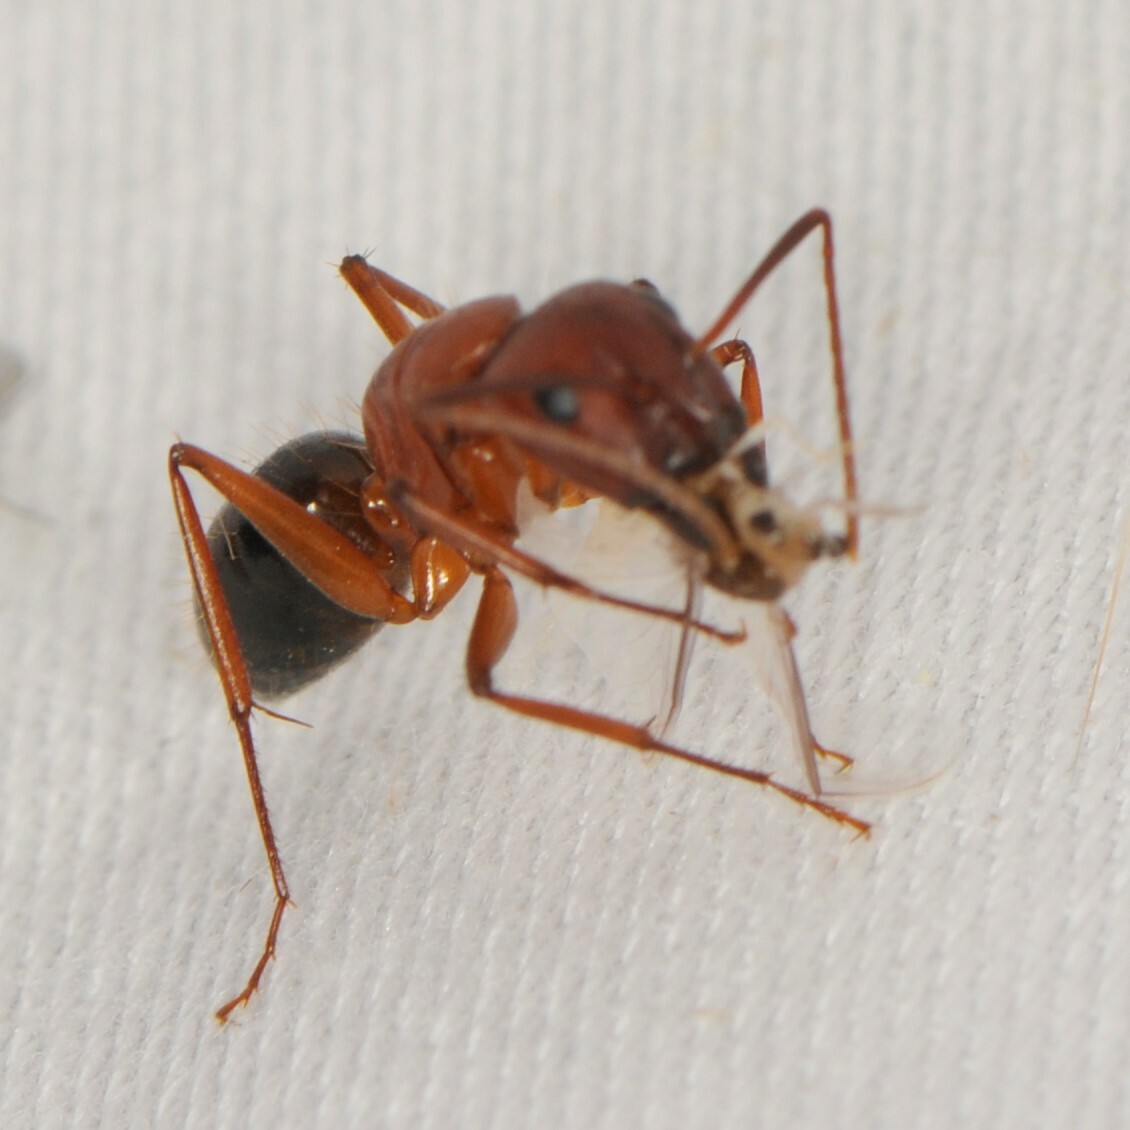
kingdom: Animalia
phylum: Arthropoda
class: Insecta
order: Hymenoptera
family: Formicidae
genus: Camponotus
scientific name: Camponotus
